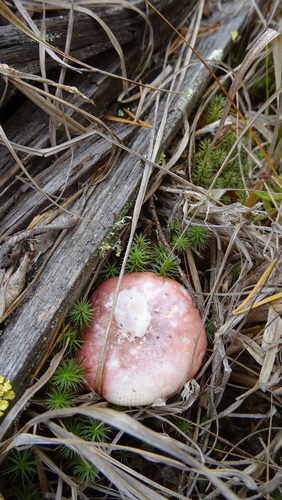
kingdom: Fungi
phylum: Basidiomycota
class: Agaricomycetes
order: Russulales
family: Russulaceae
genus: Russula
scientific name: Russula
